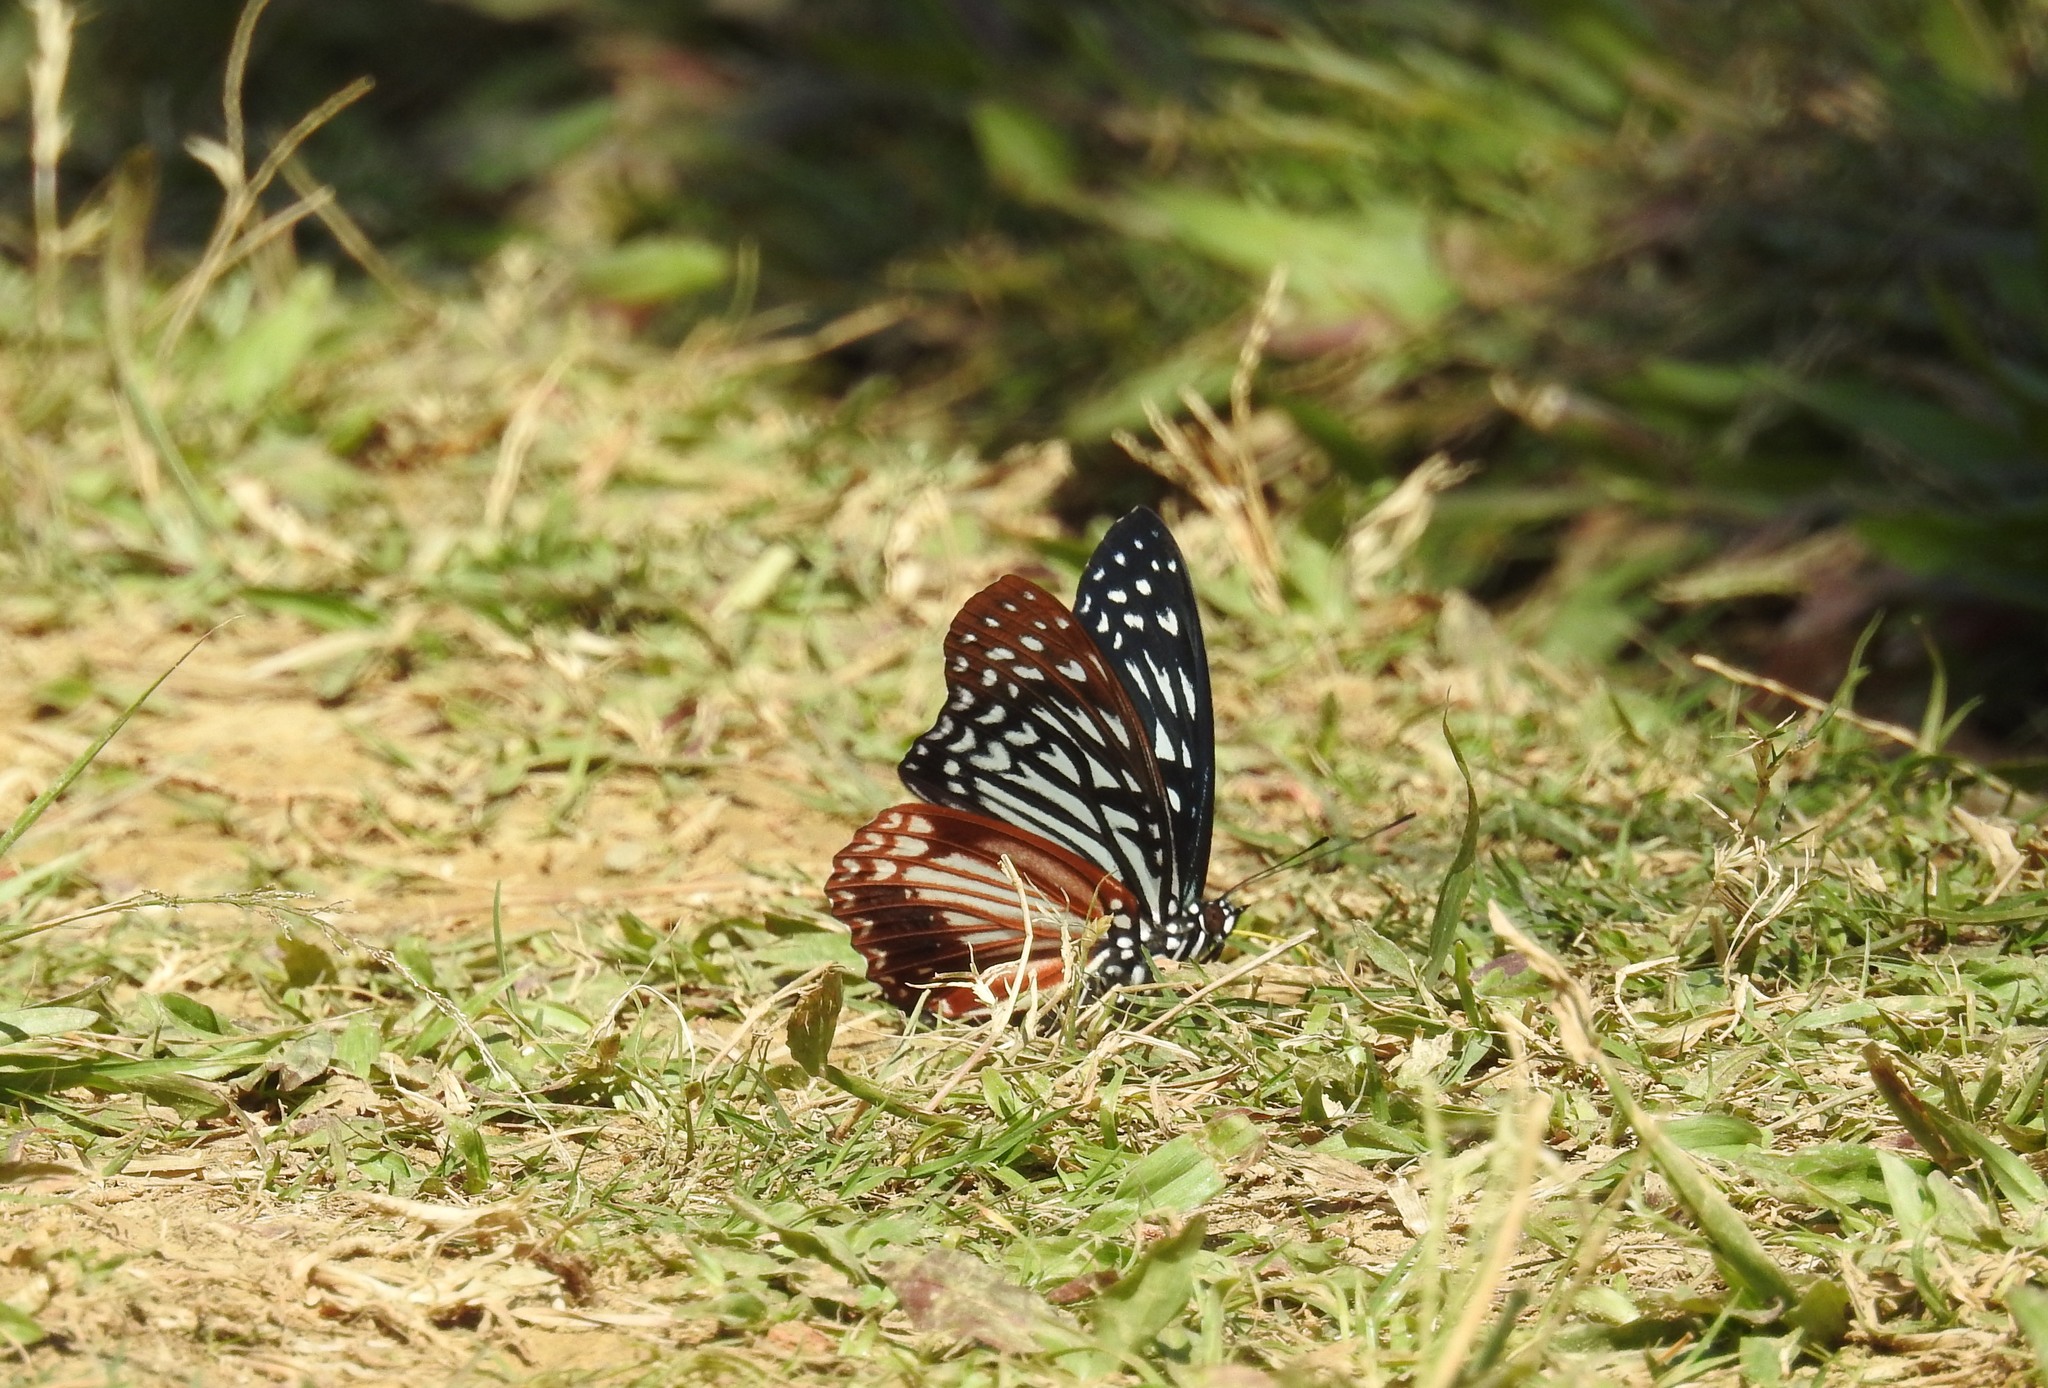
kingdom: Animalia
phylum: Arthropoda
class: Insecta
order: Lepidoptera
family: Nymphalidae
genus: Parantica
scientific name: Parantica sita
